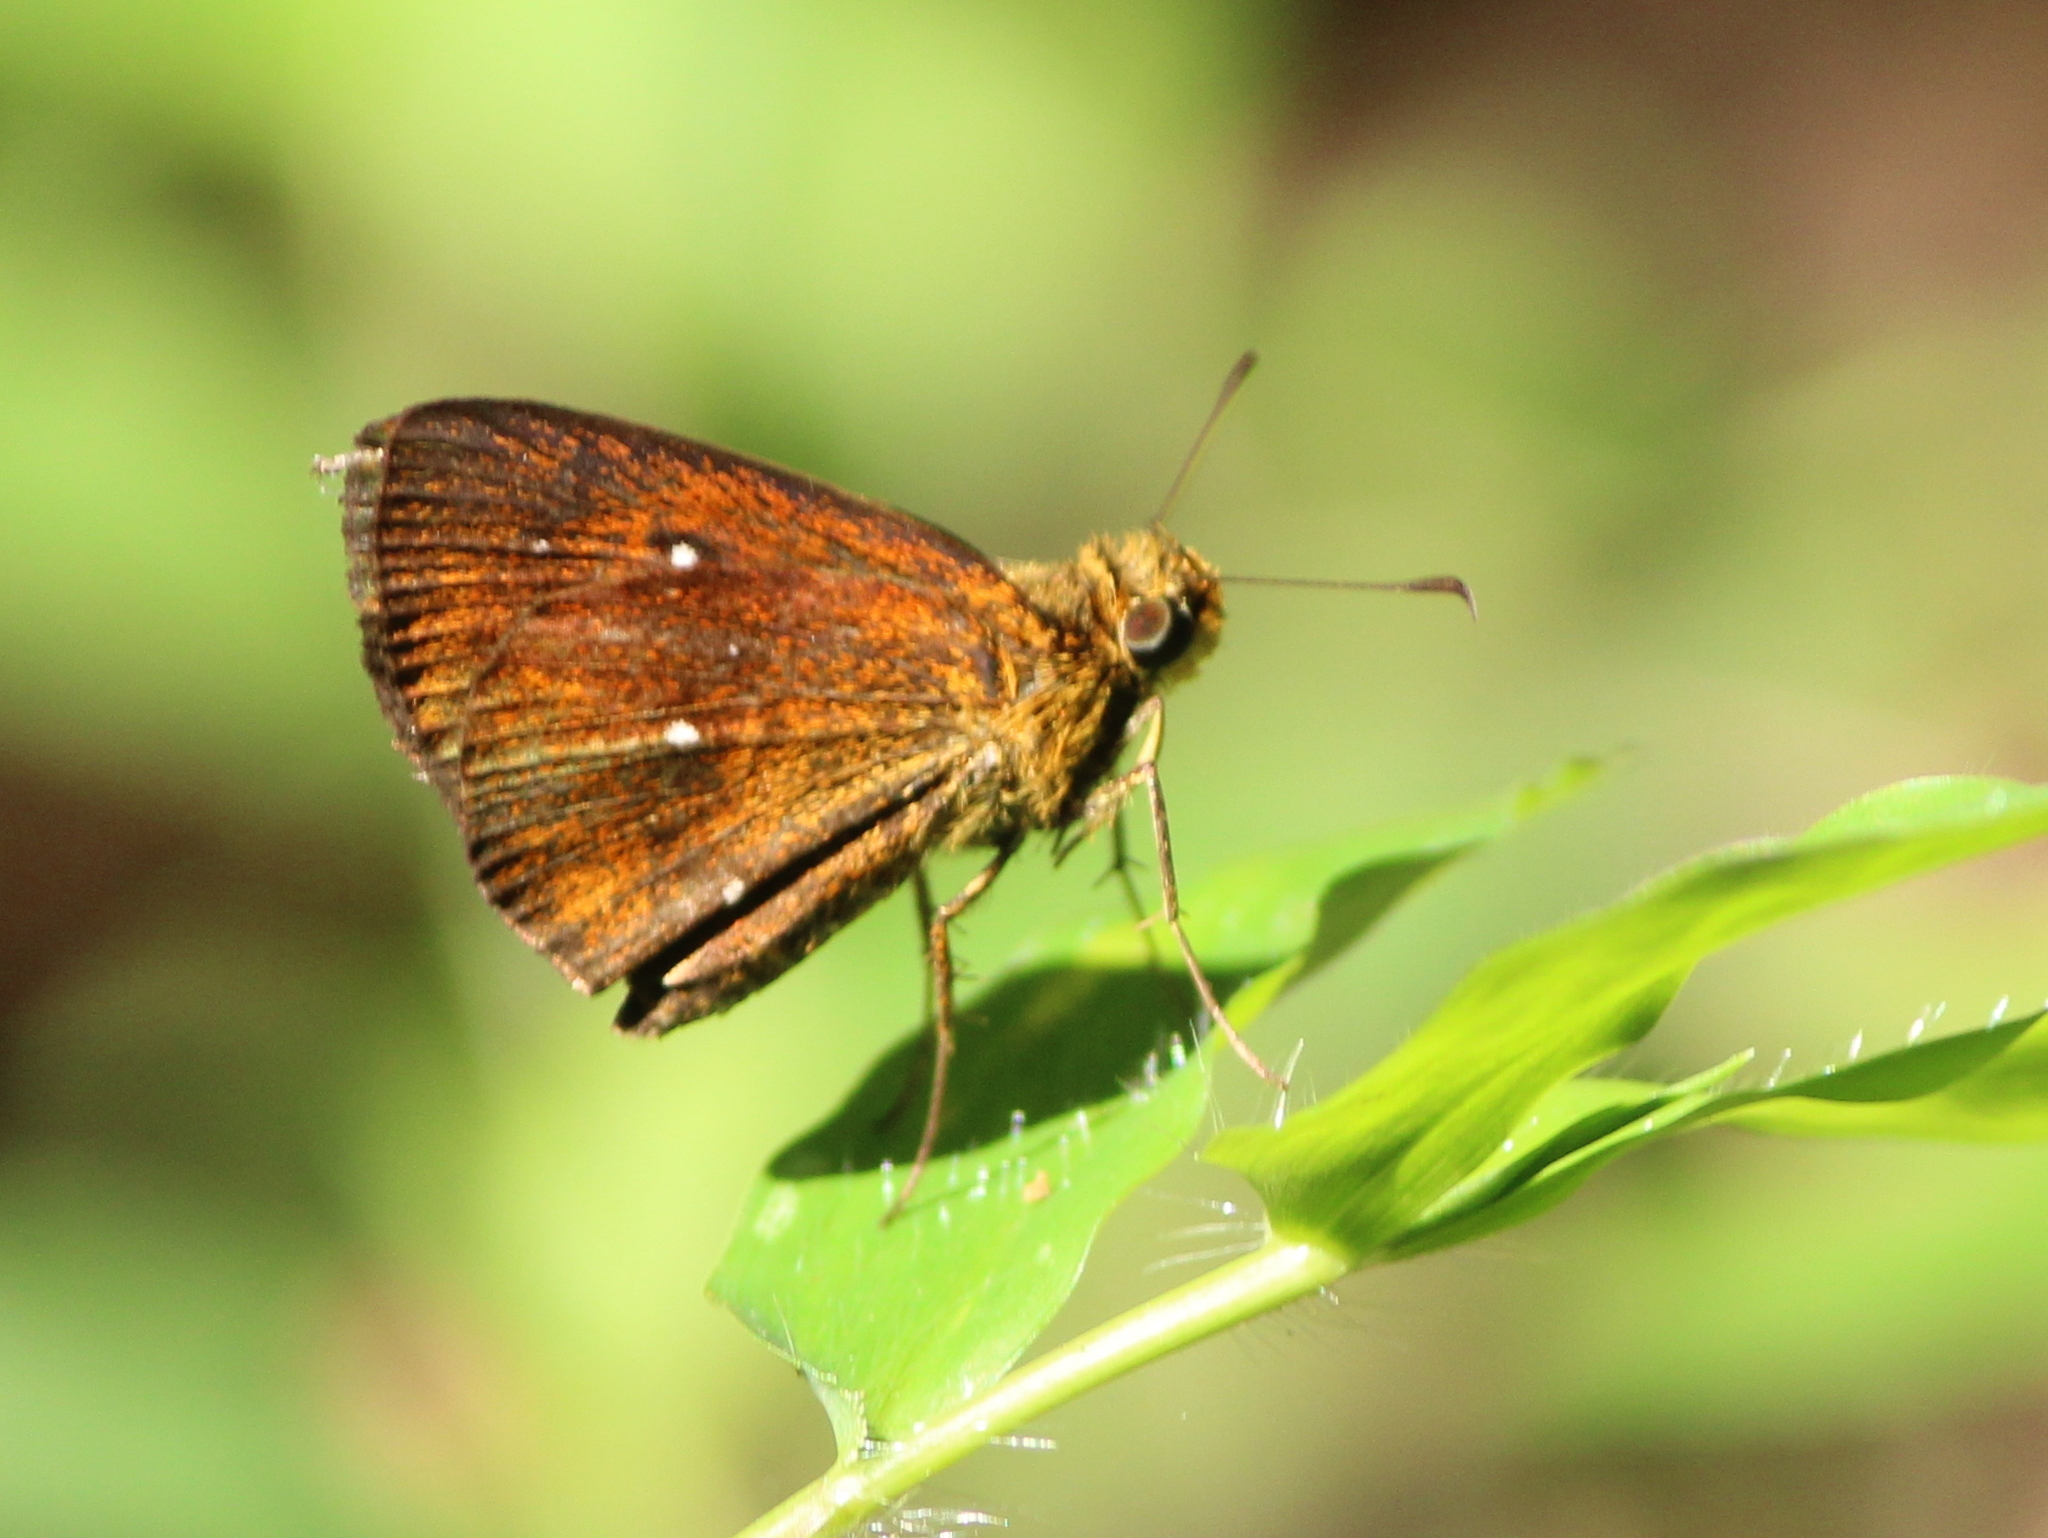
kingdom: Animalia
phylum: Arthropoda
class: Insecta
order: Lepidoptera
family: Hesperiidae
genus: Iambrix
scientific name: Iambrix salsala
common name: Chestnut bob
